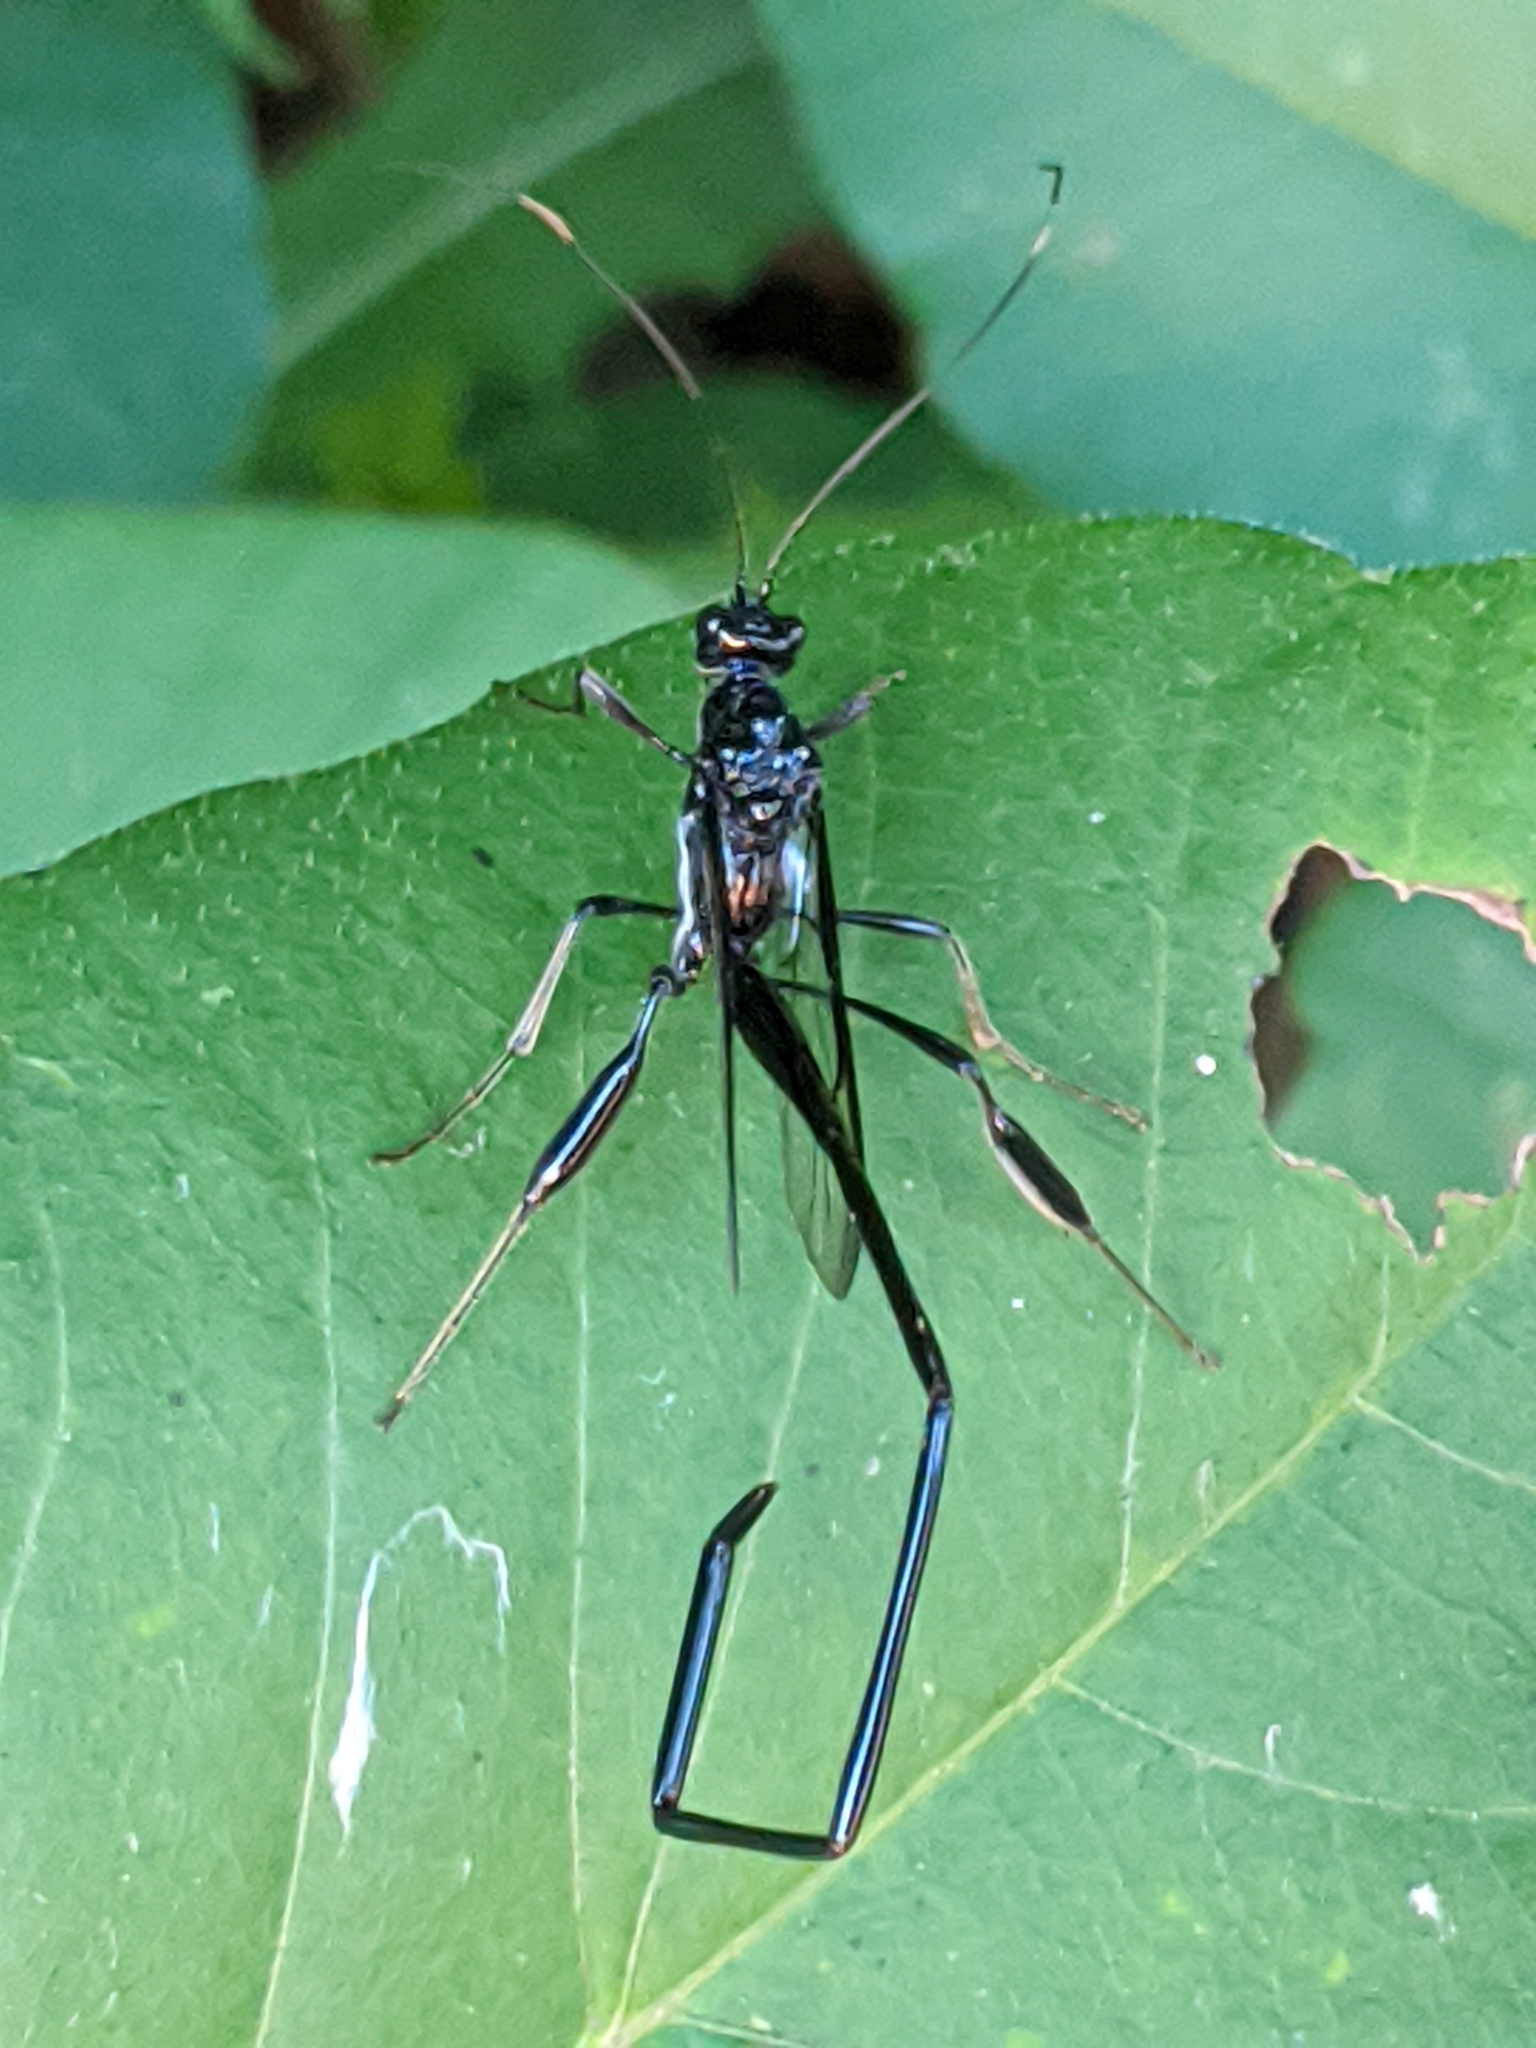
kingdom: Animalia
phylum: Arthropoda
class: Insecta
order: Hymenoptera
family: Pelecinidae
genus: Pelecinus
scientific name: Pelecinus polyturator
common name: American pelecinid wasp
